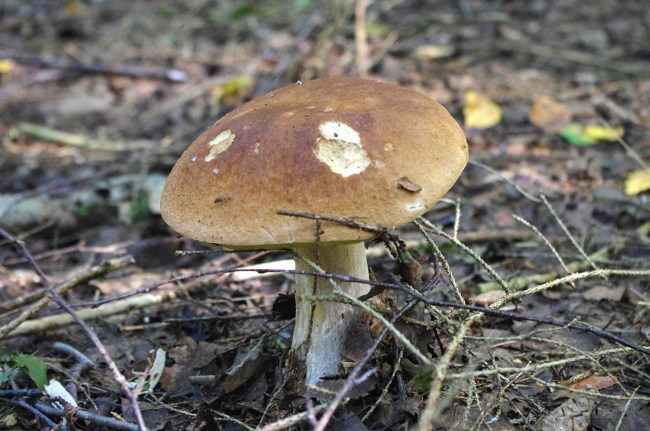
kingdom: Fungi
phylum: Basidiomycota
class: Agaricomycetes
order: Boletales
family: Boletaceae
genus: Boletus
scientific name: Boletus edulis
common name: Cep
